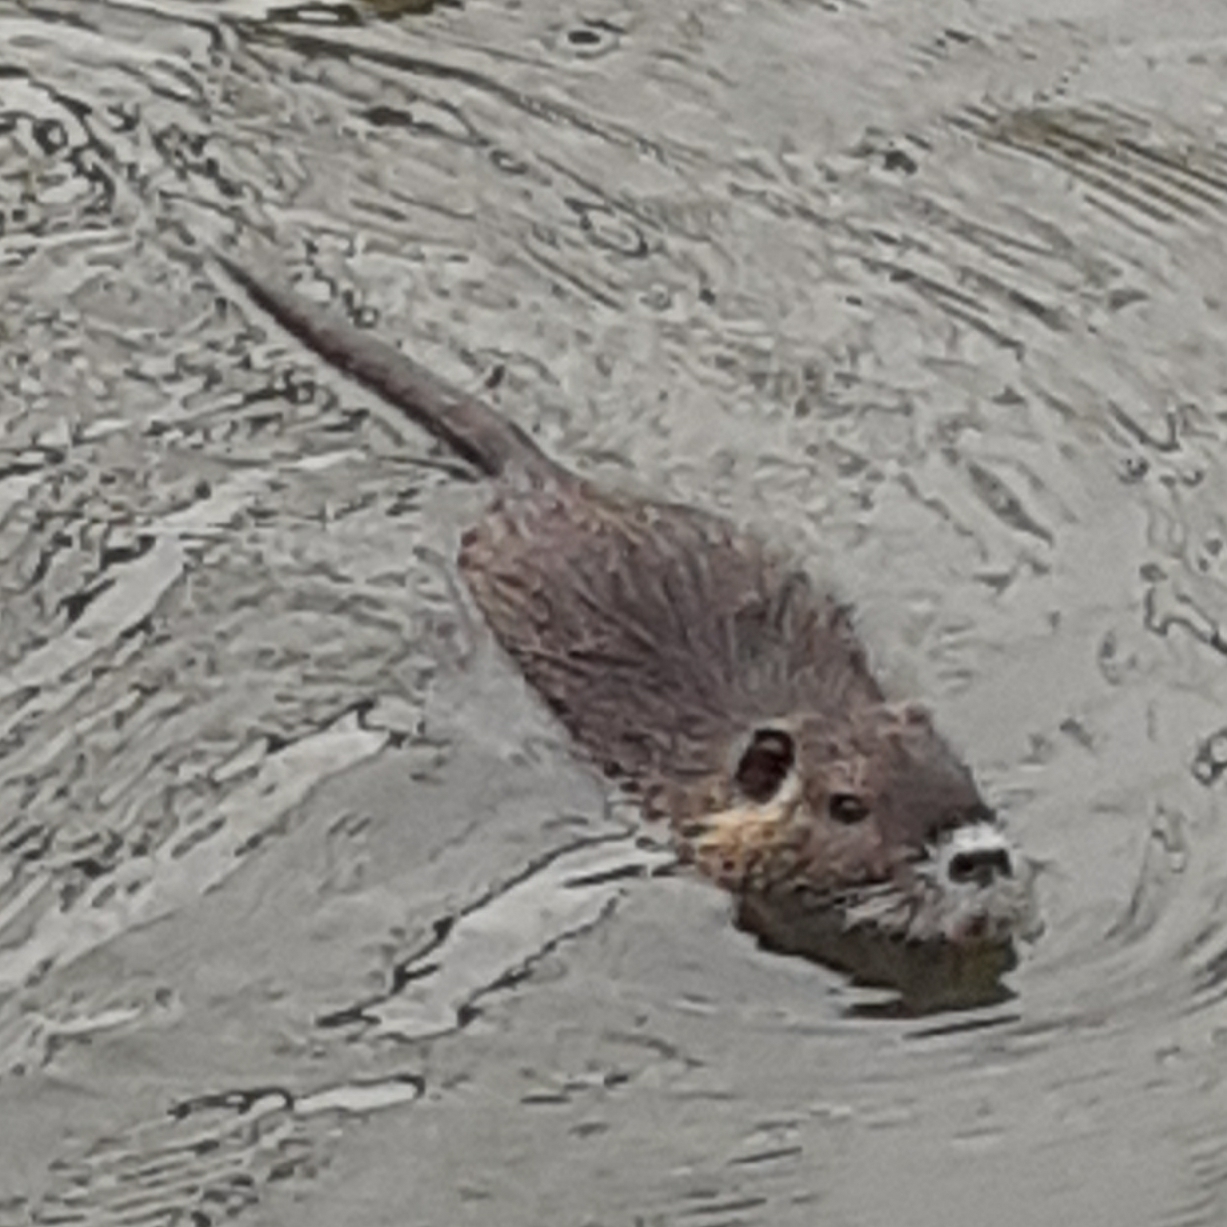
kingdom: Animalia
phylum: Chordata
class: Mammalia
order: Rodentia
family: Myocastoridae
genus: Myocastor
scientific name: Myocastor coypus
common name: Coypu
